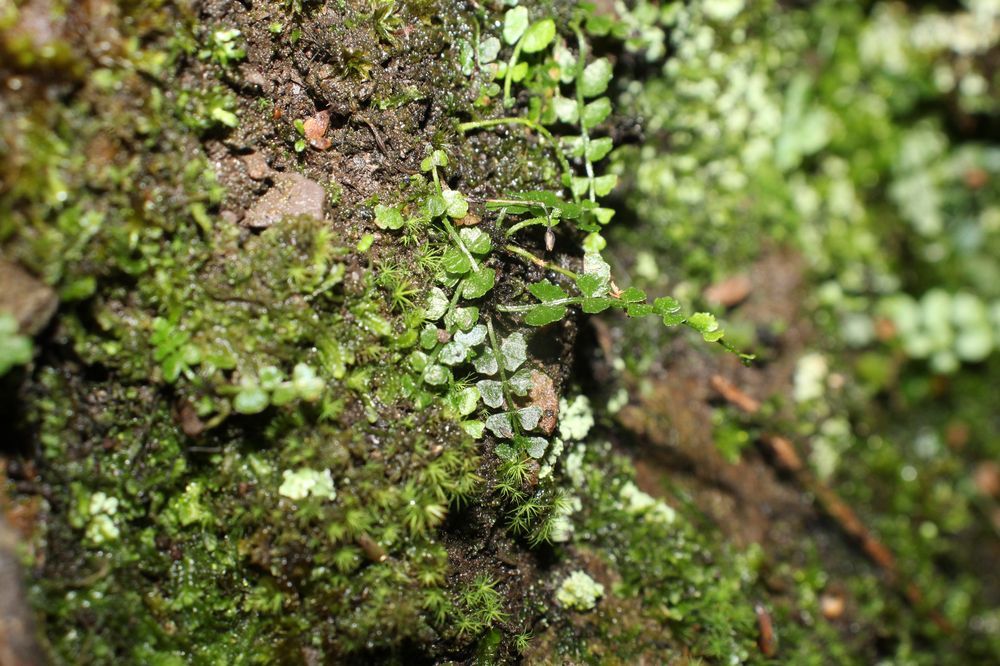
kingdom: Plantae
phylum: Tracheophyta
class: Polypodiopsida
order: Polypodiales
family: Aspleniaceae
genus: Asplenium
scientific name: Asplenium flabellifolium
